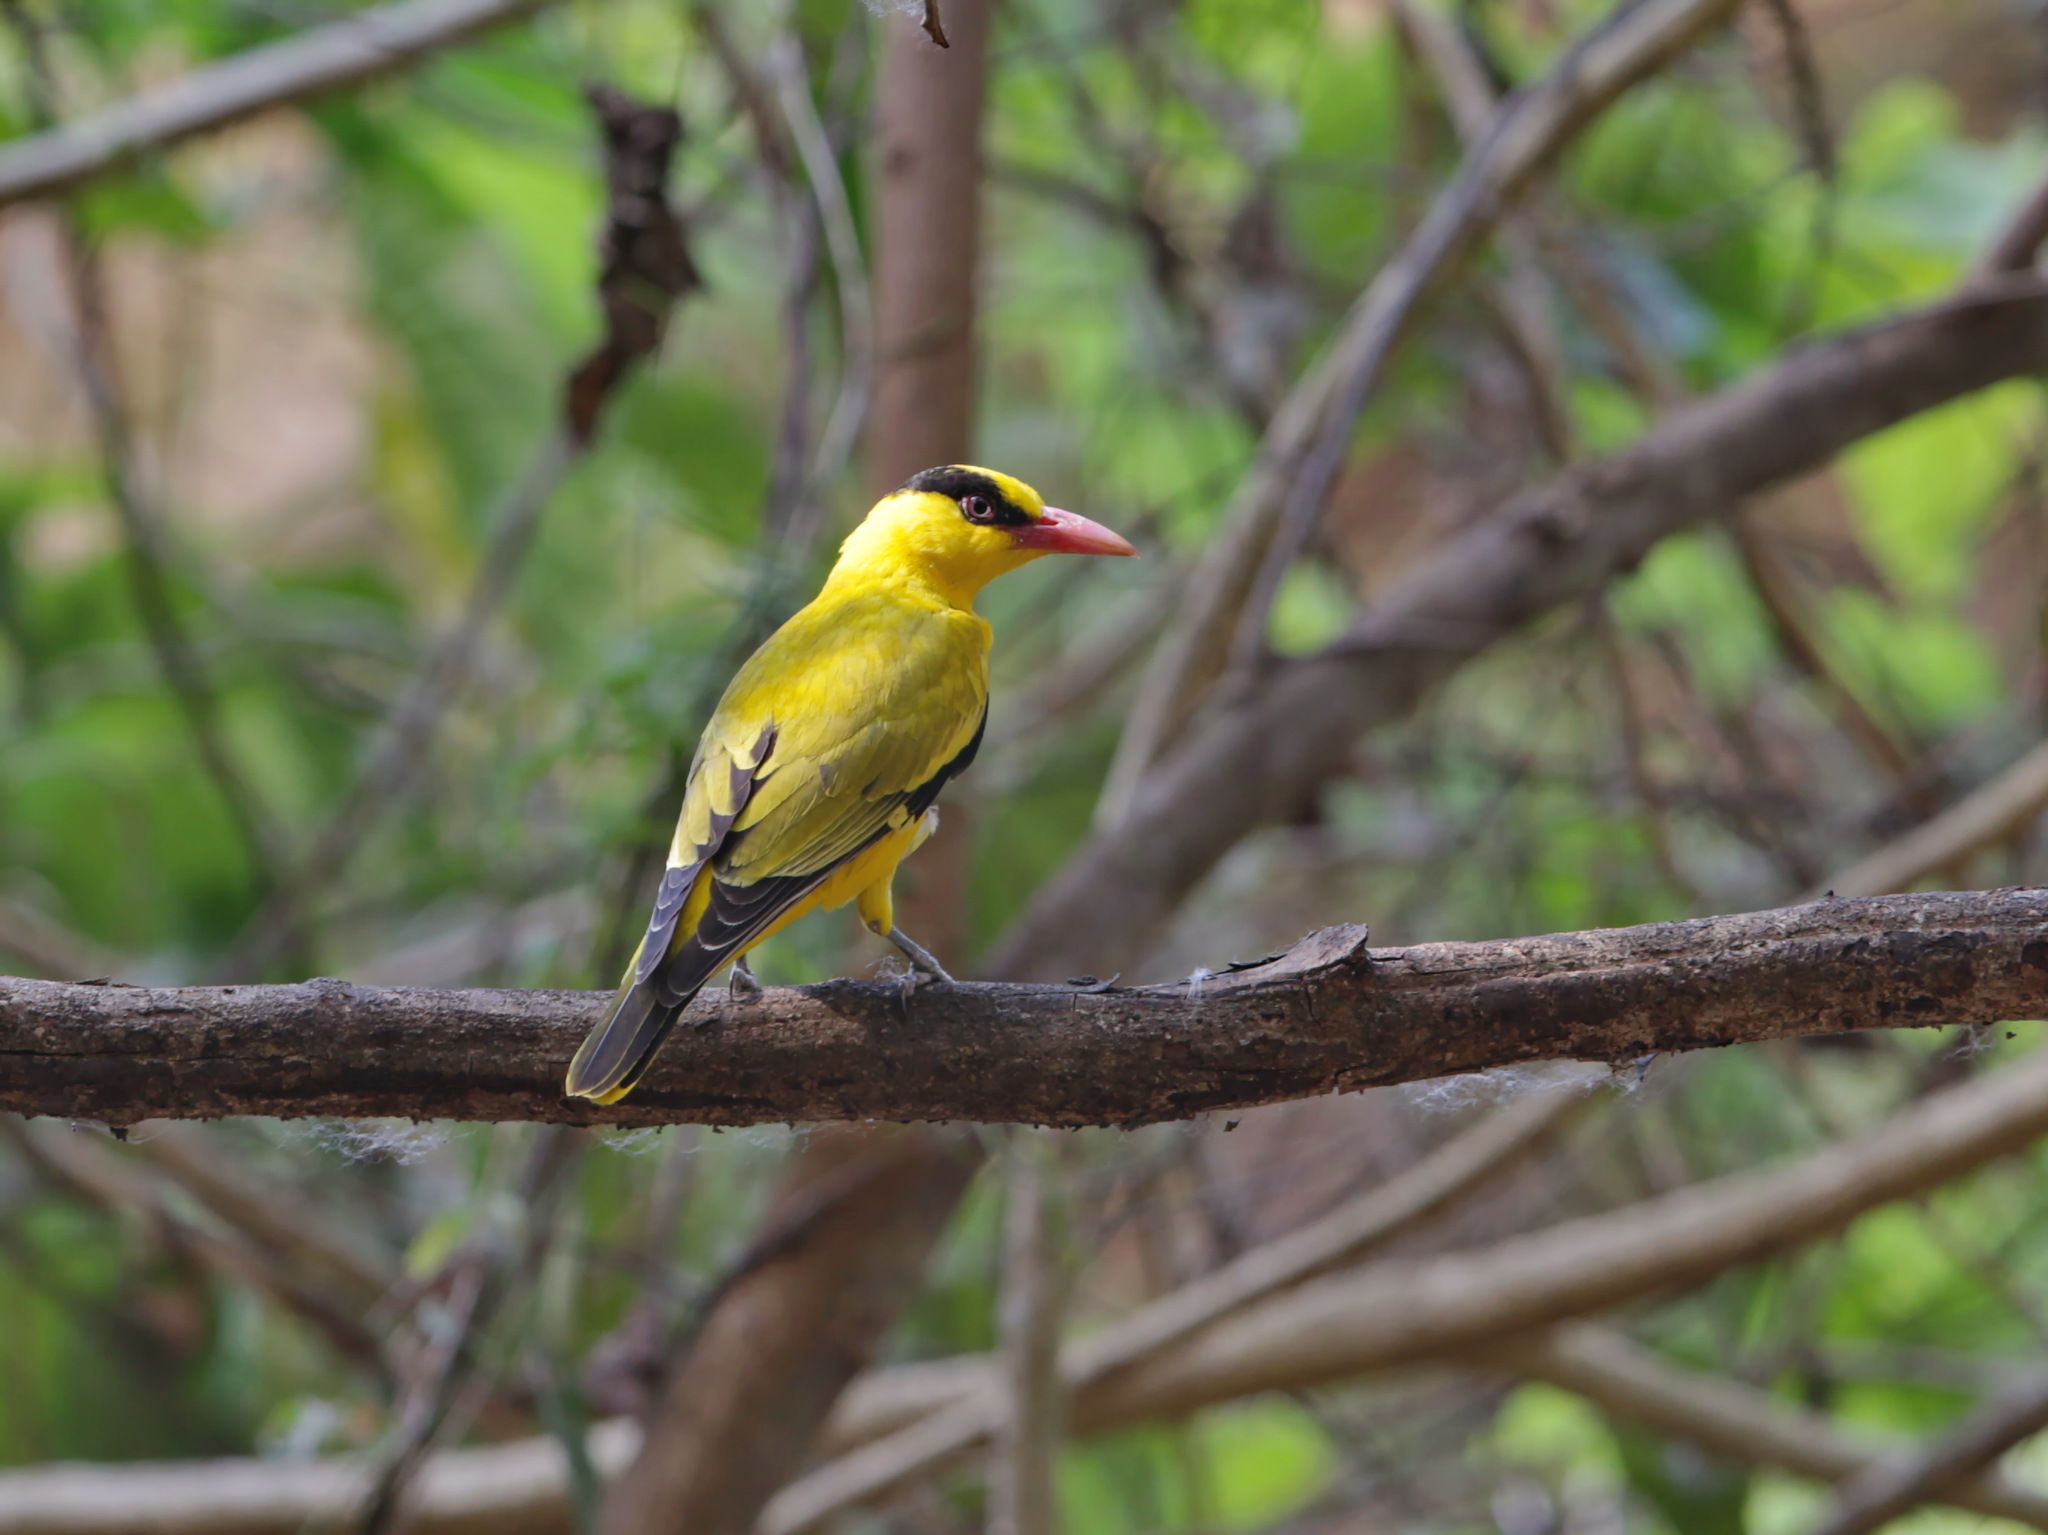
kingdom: Animalia
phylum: Chordata
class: Aves
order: Passeriformes
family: Oriolidae
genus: Oriolus
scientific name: Oriolus chinensis
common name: Black-naped oriole
